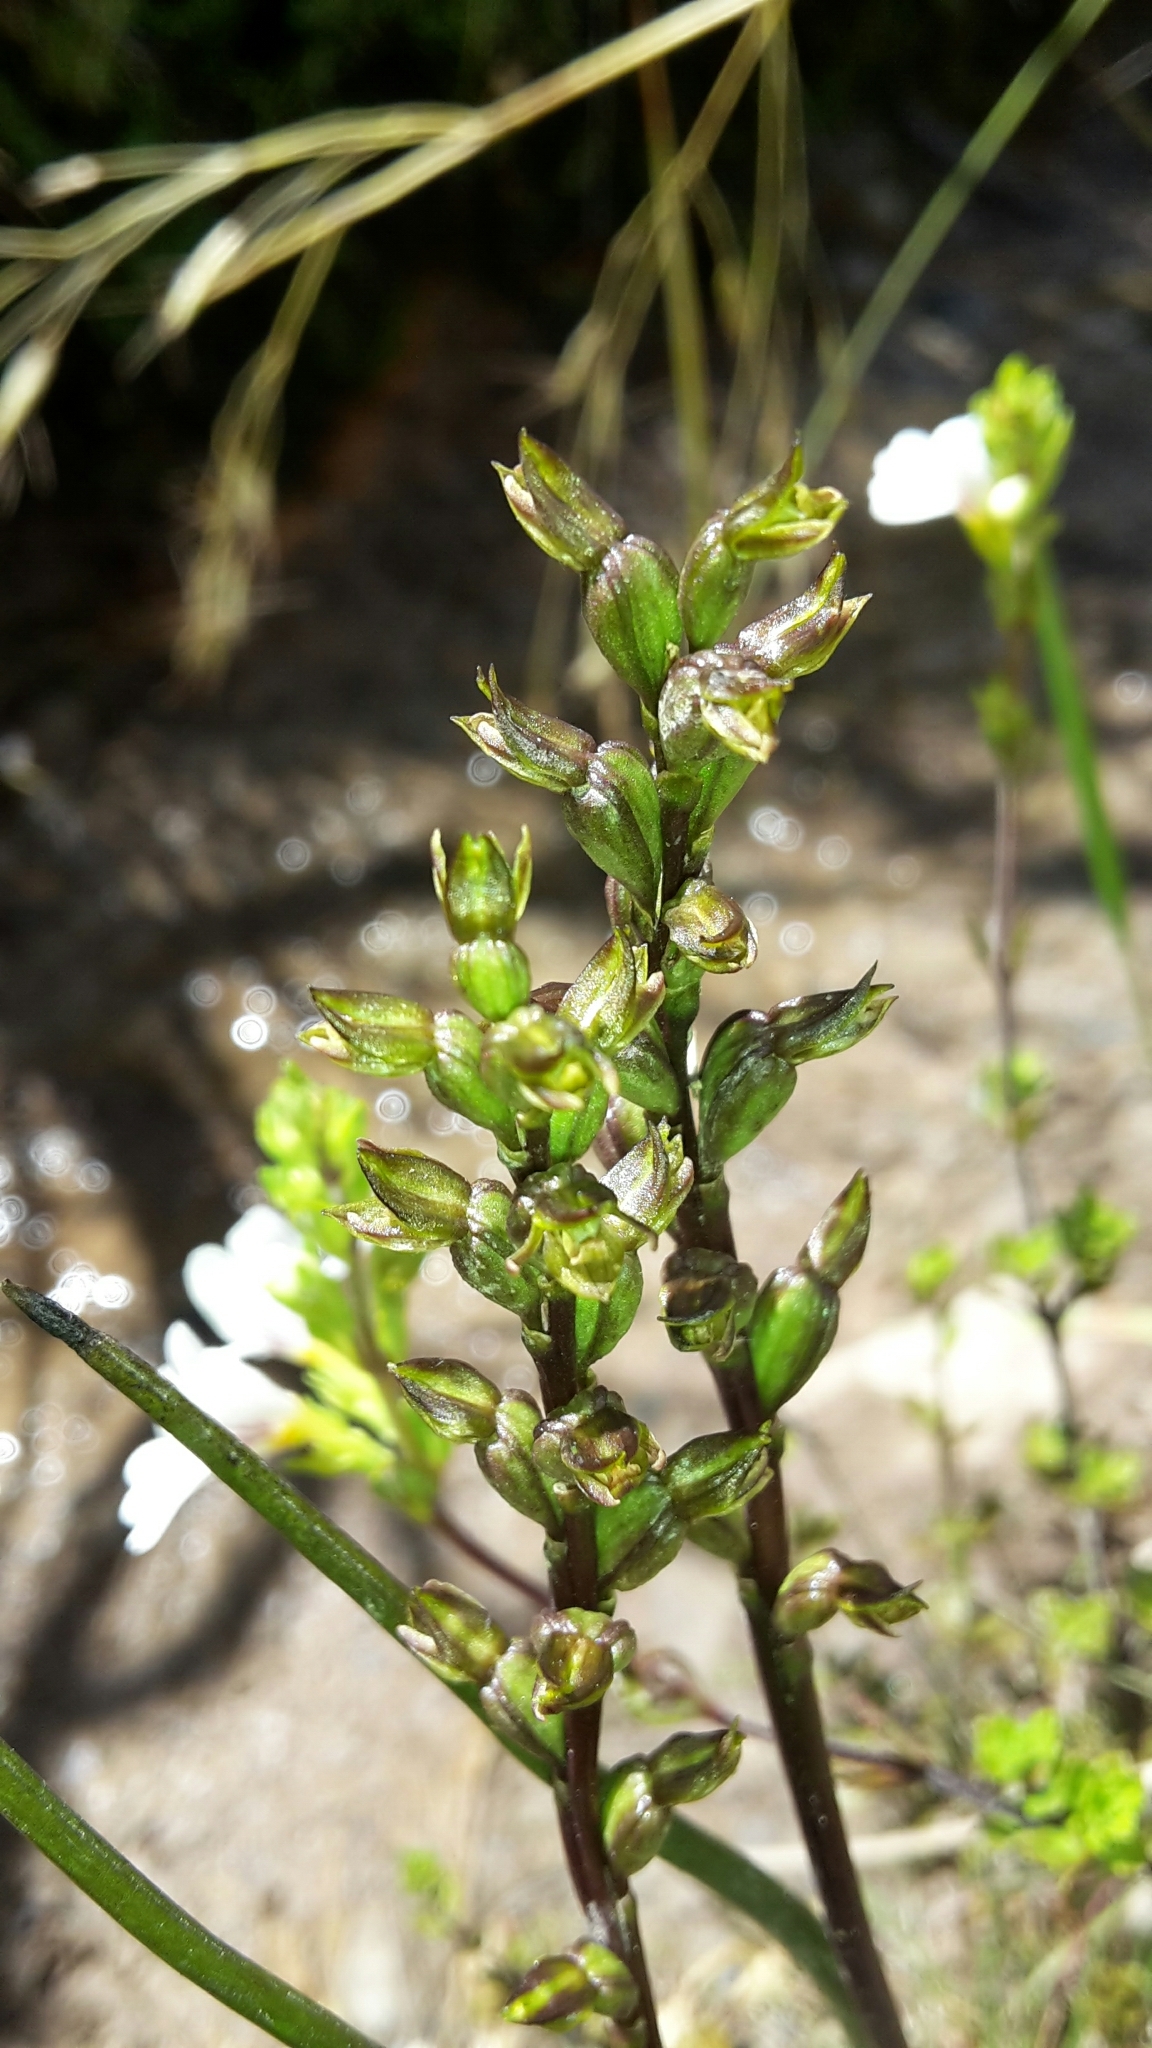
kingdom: Plantae
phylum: Tracheophyta
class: Liliopsida
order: Asparagales
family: Orchidaceae
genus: Prasophyllum
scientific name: Prasophyllum colensoi
